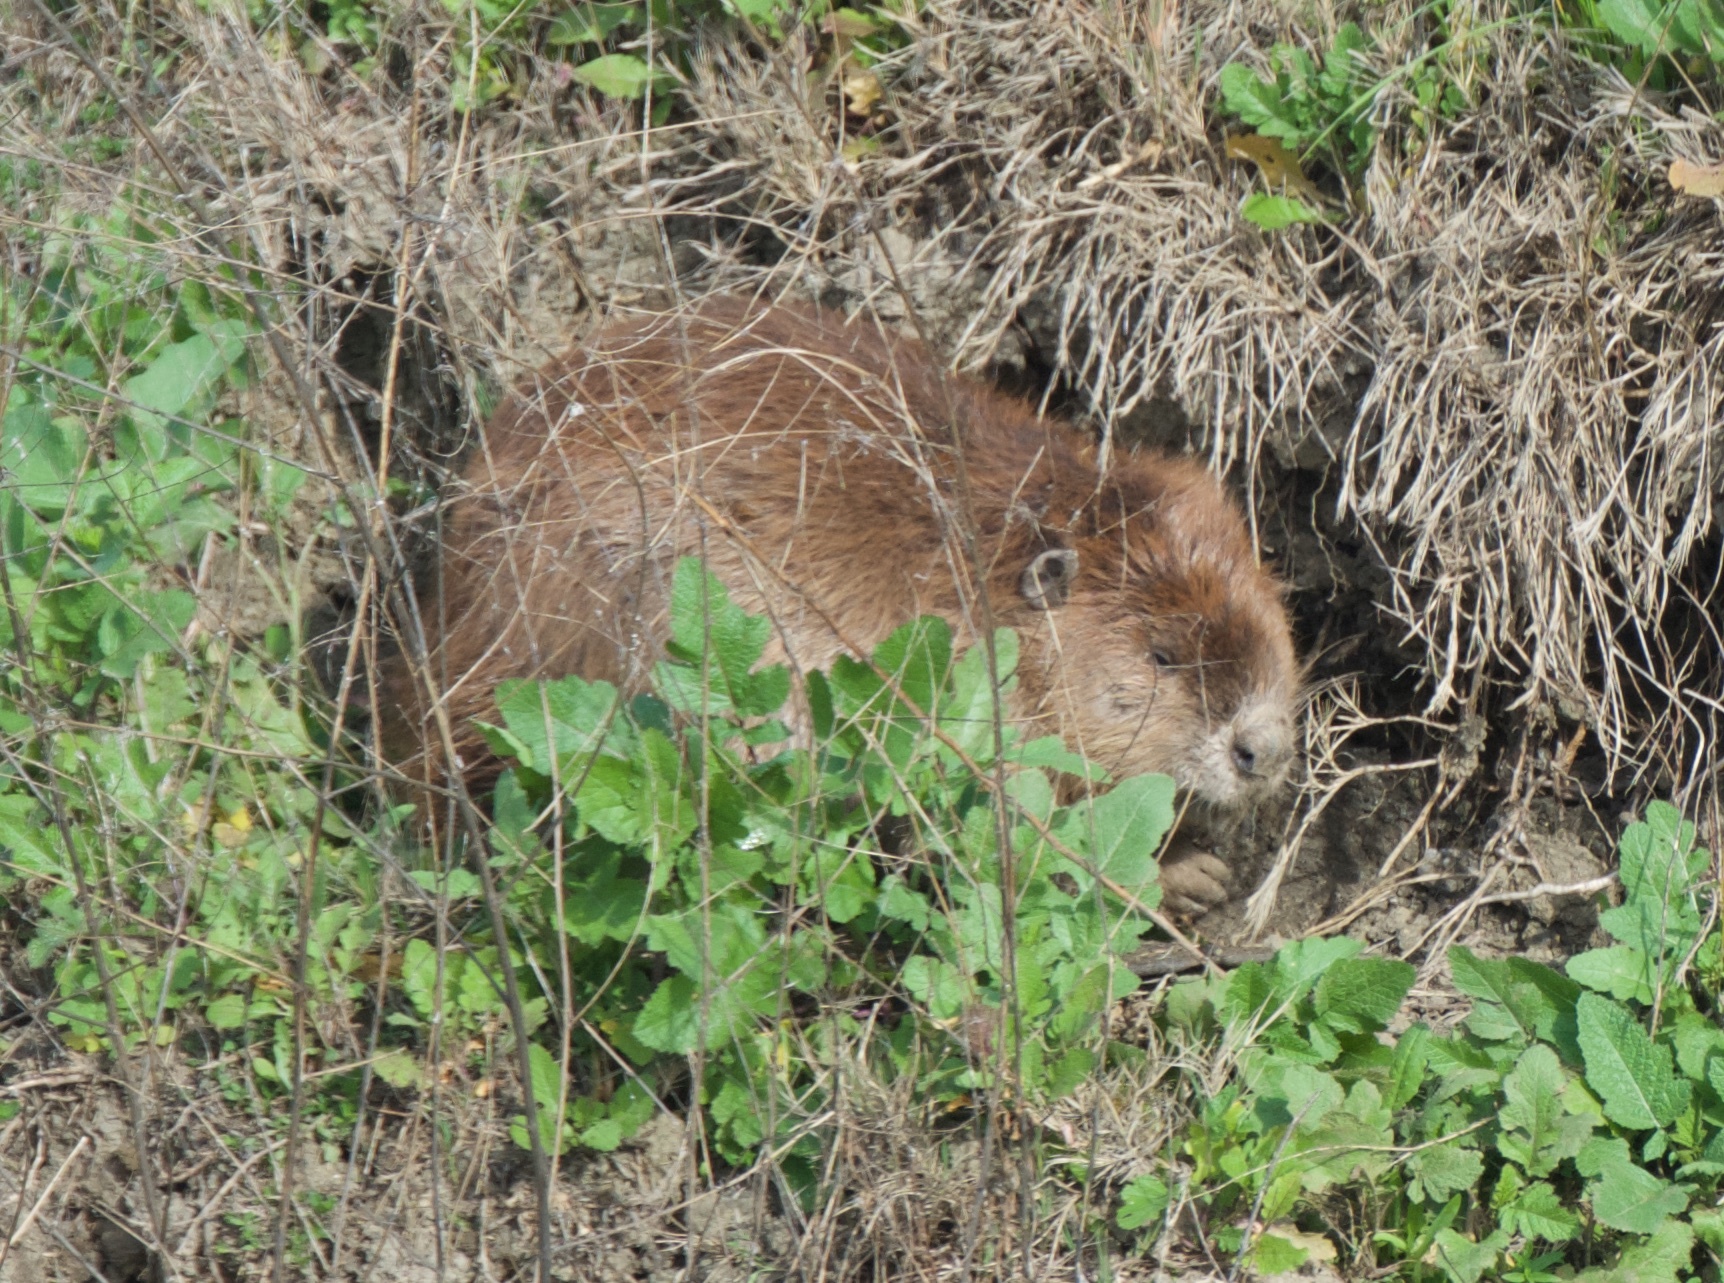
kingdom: Animalia
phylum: Chordata
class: Mammalia
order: Rodentia
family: Castoridae
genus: Castor
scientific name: Castor canadensis
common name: American beaver
